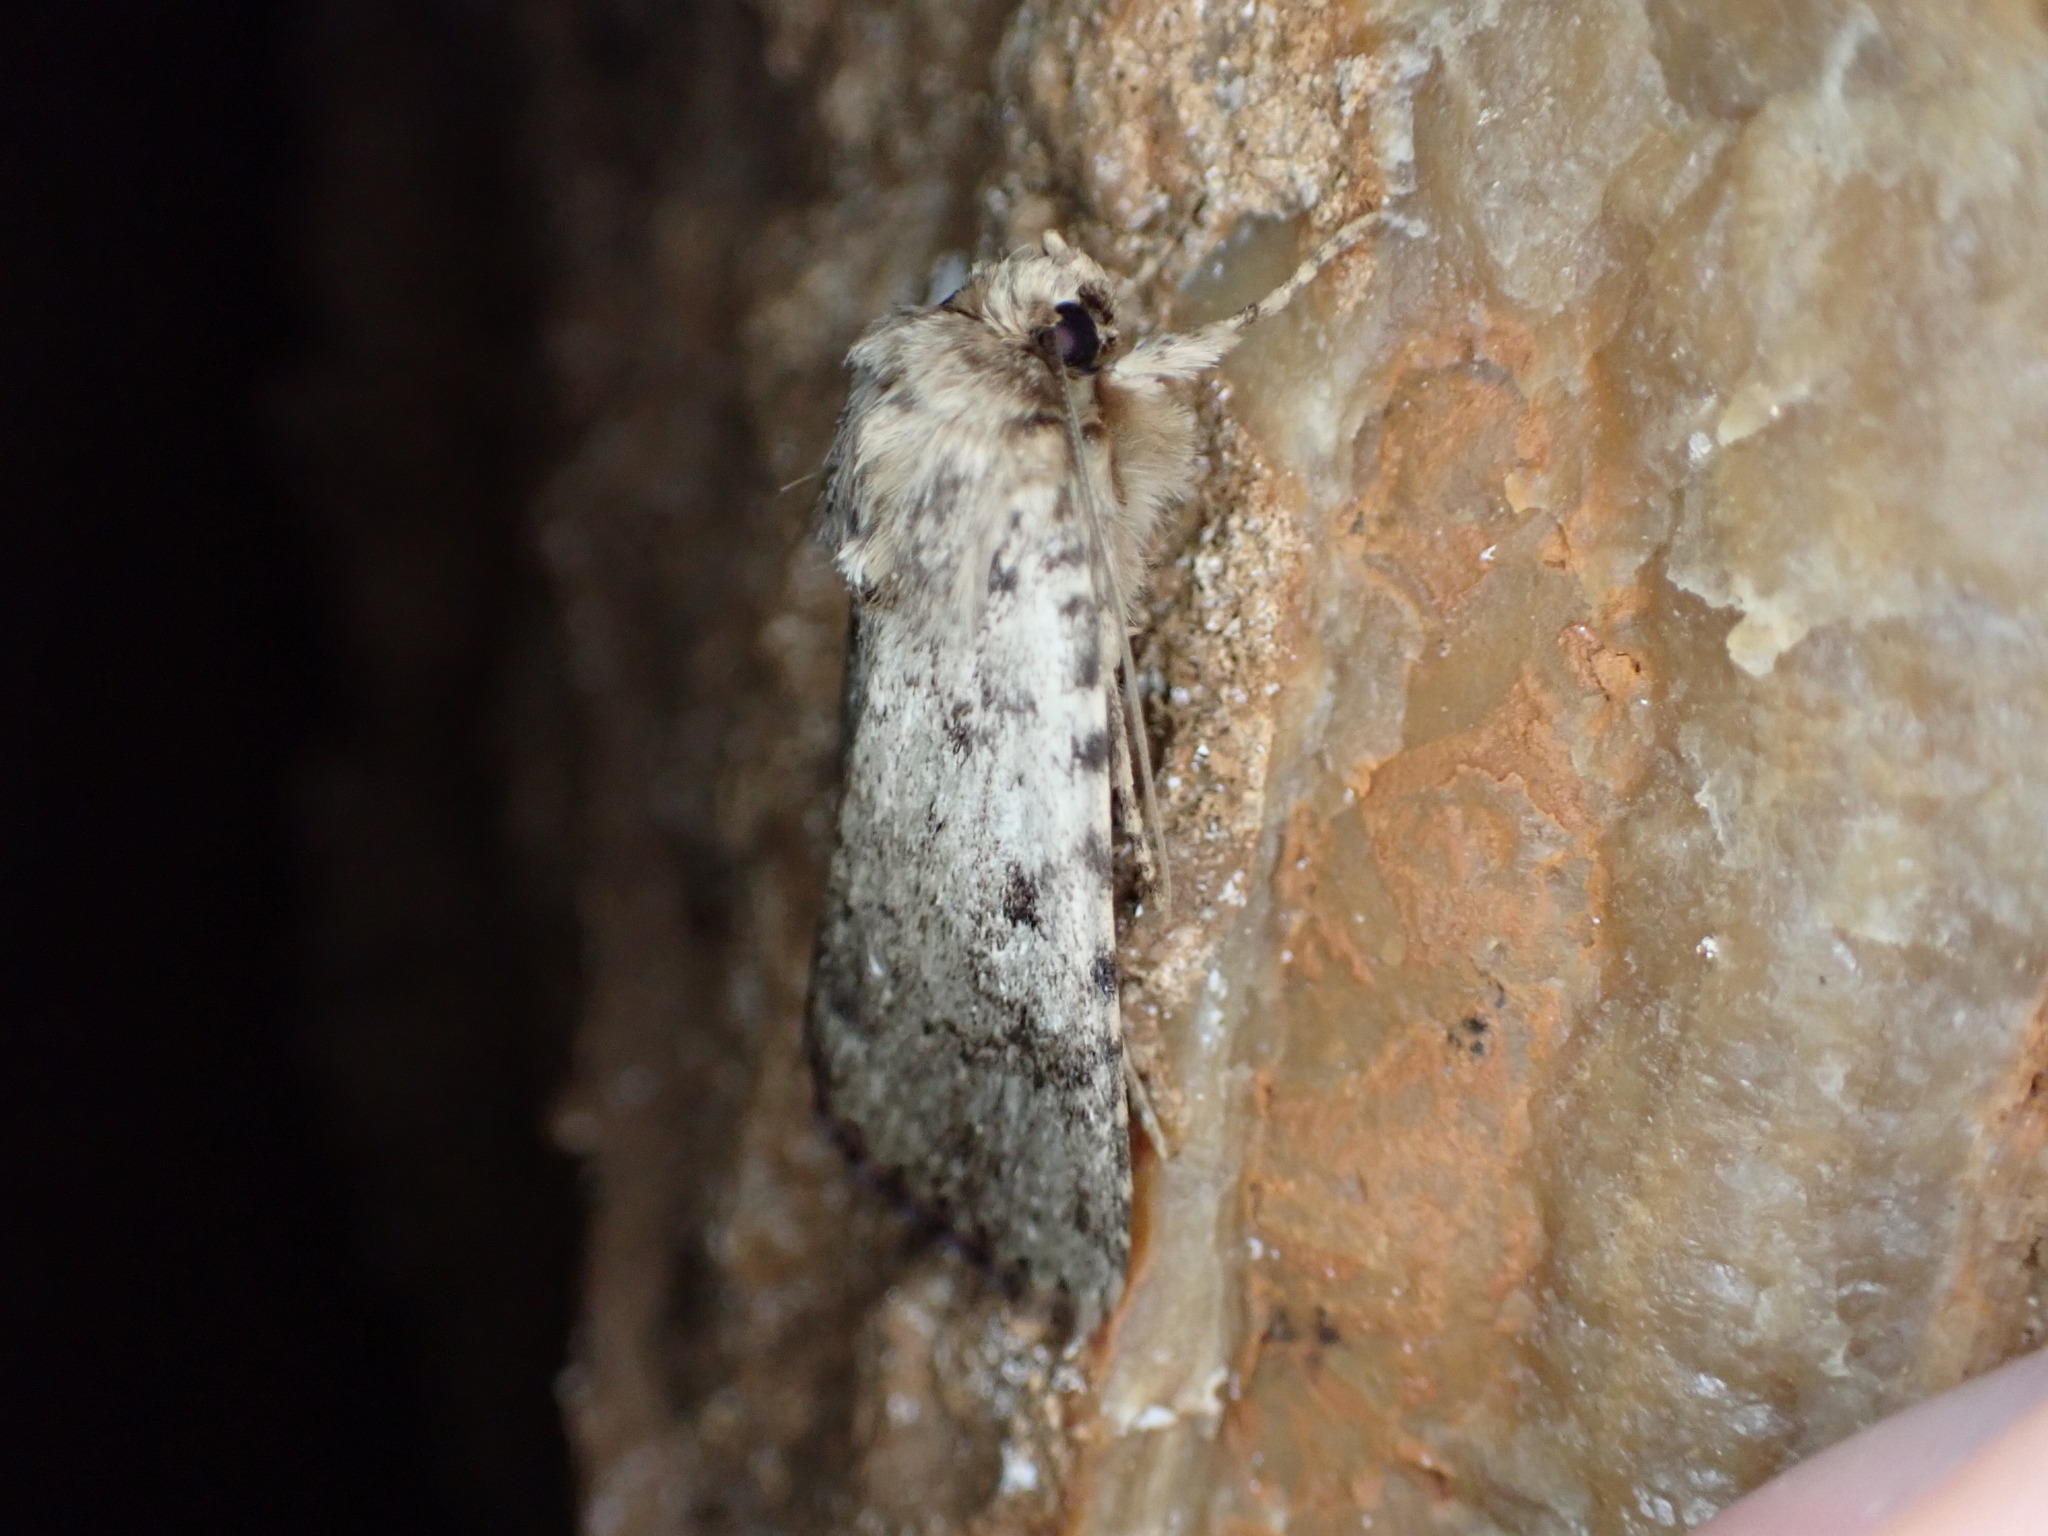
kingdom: Animalia
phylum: Arthropoda
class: Insecta
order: Lepidoptera
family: Noctuidae
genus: Amphipyra
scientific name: Amphipyra effusa
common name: Landguard ochre
